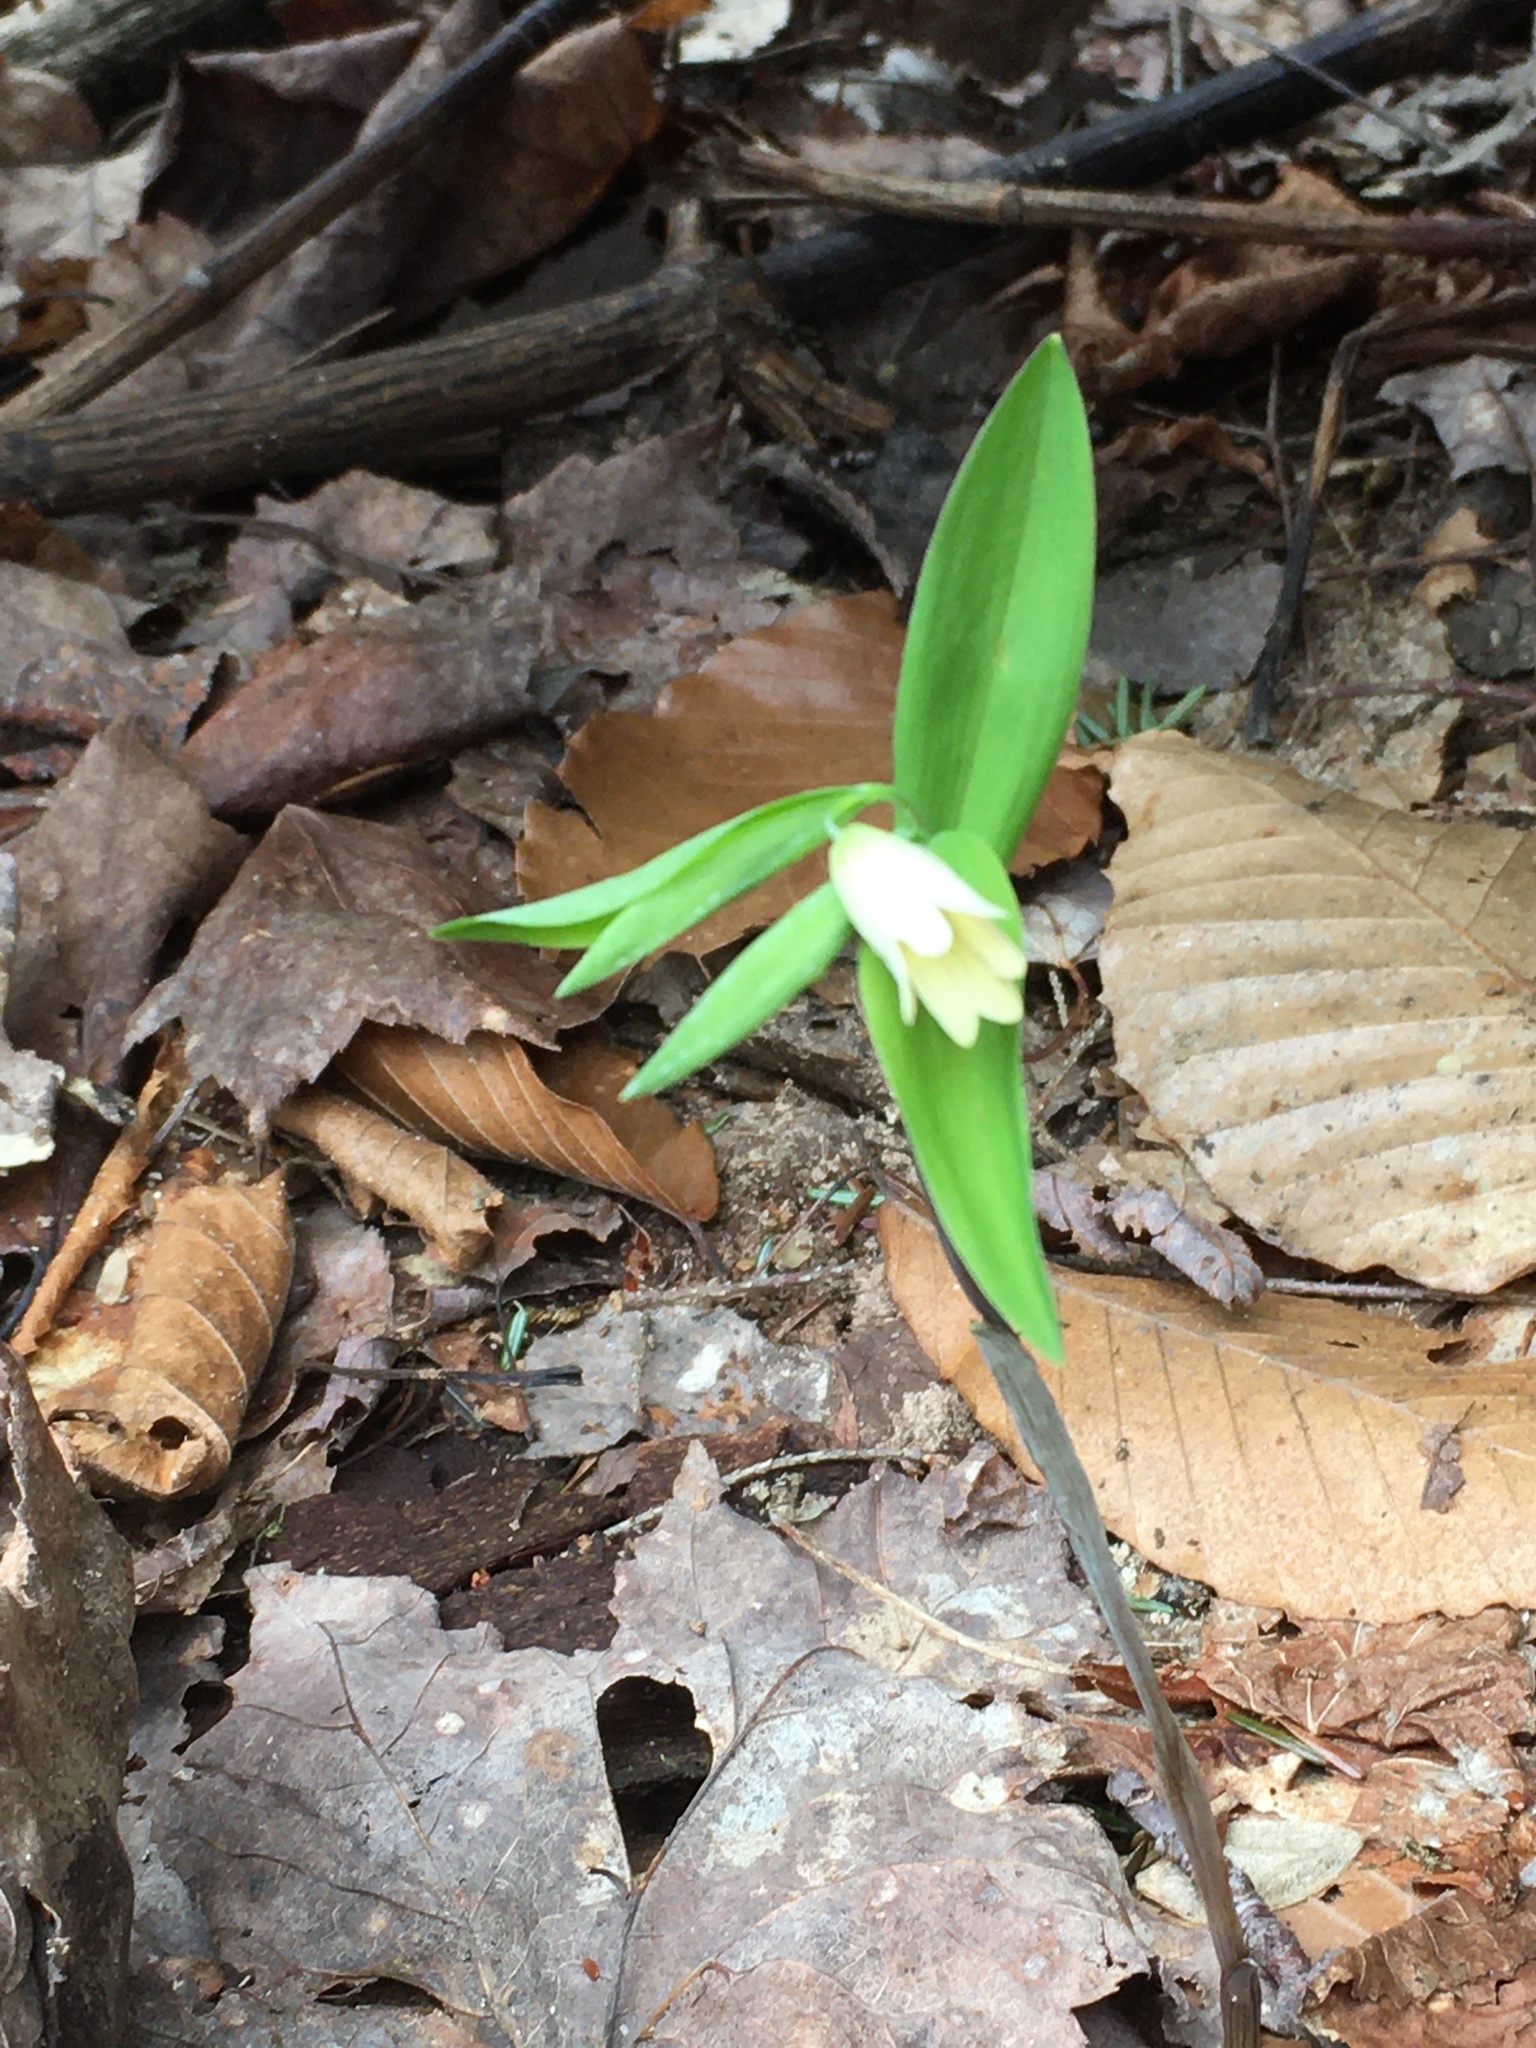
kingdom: Plantae
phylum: Tracheophyta
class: Liliopsida
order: Liliales
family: Colchicaceae
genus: Uvularia
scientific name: Uvularia sessilifolia
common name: Straw-lily
